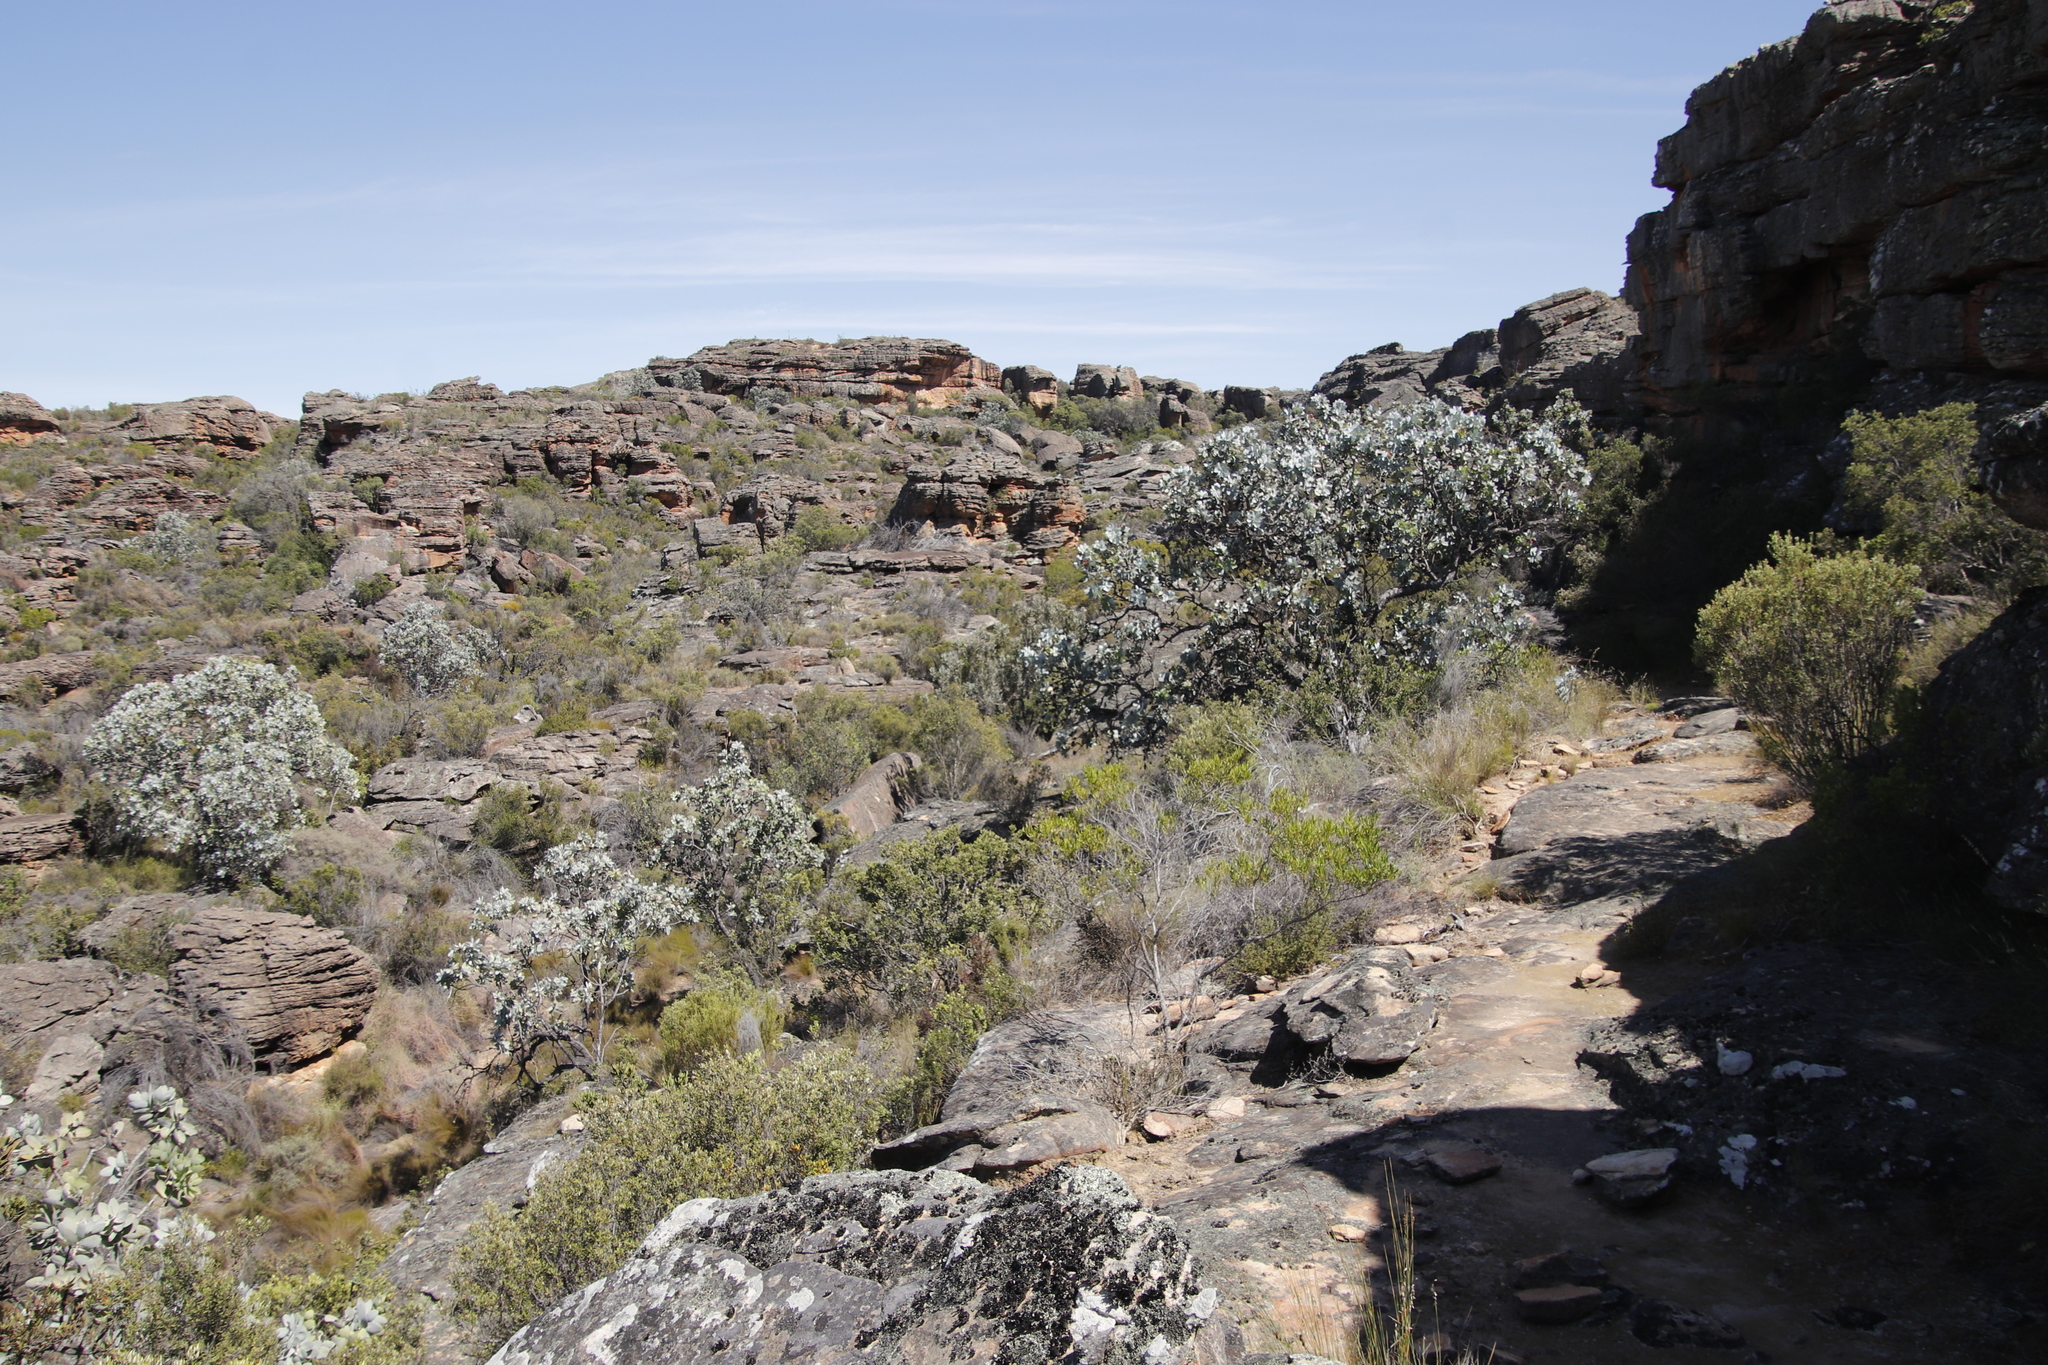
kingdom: Plantae
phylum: Tracheophyta
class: Magnoliopsida
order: Proteales
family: Proteaceae
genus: Protea
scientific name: Protea nitida
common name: Tree protea
